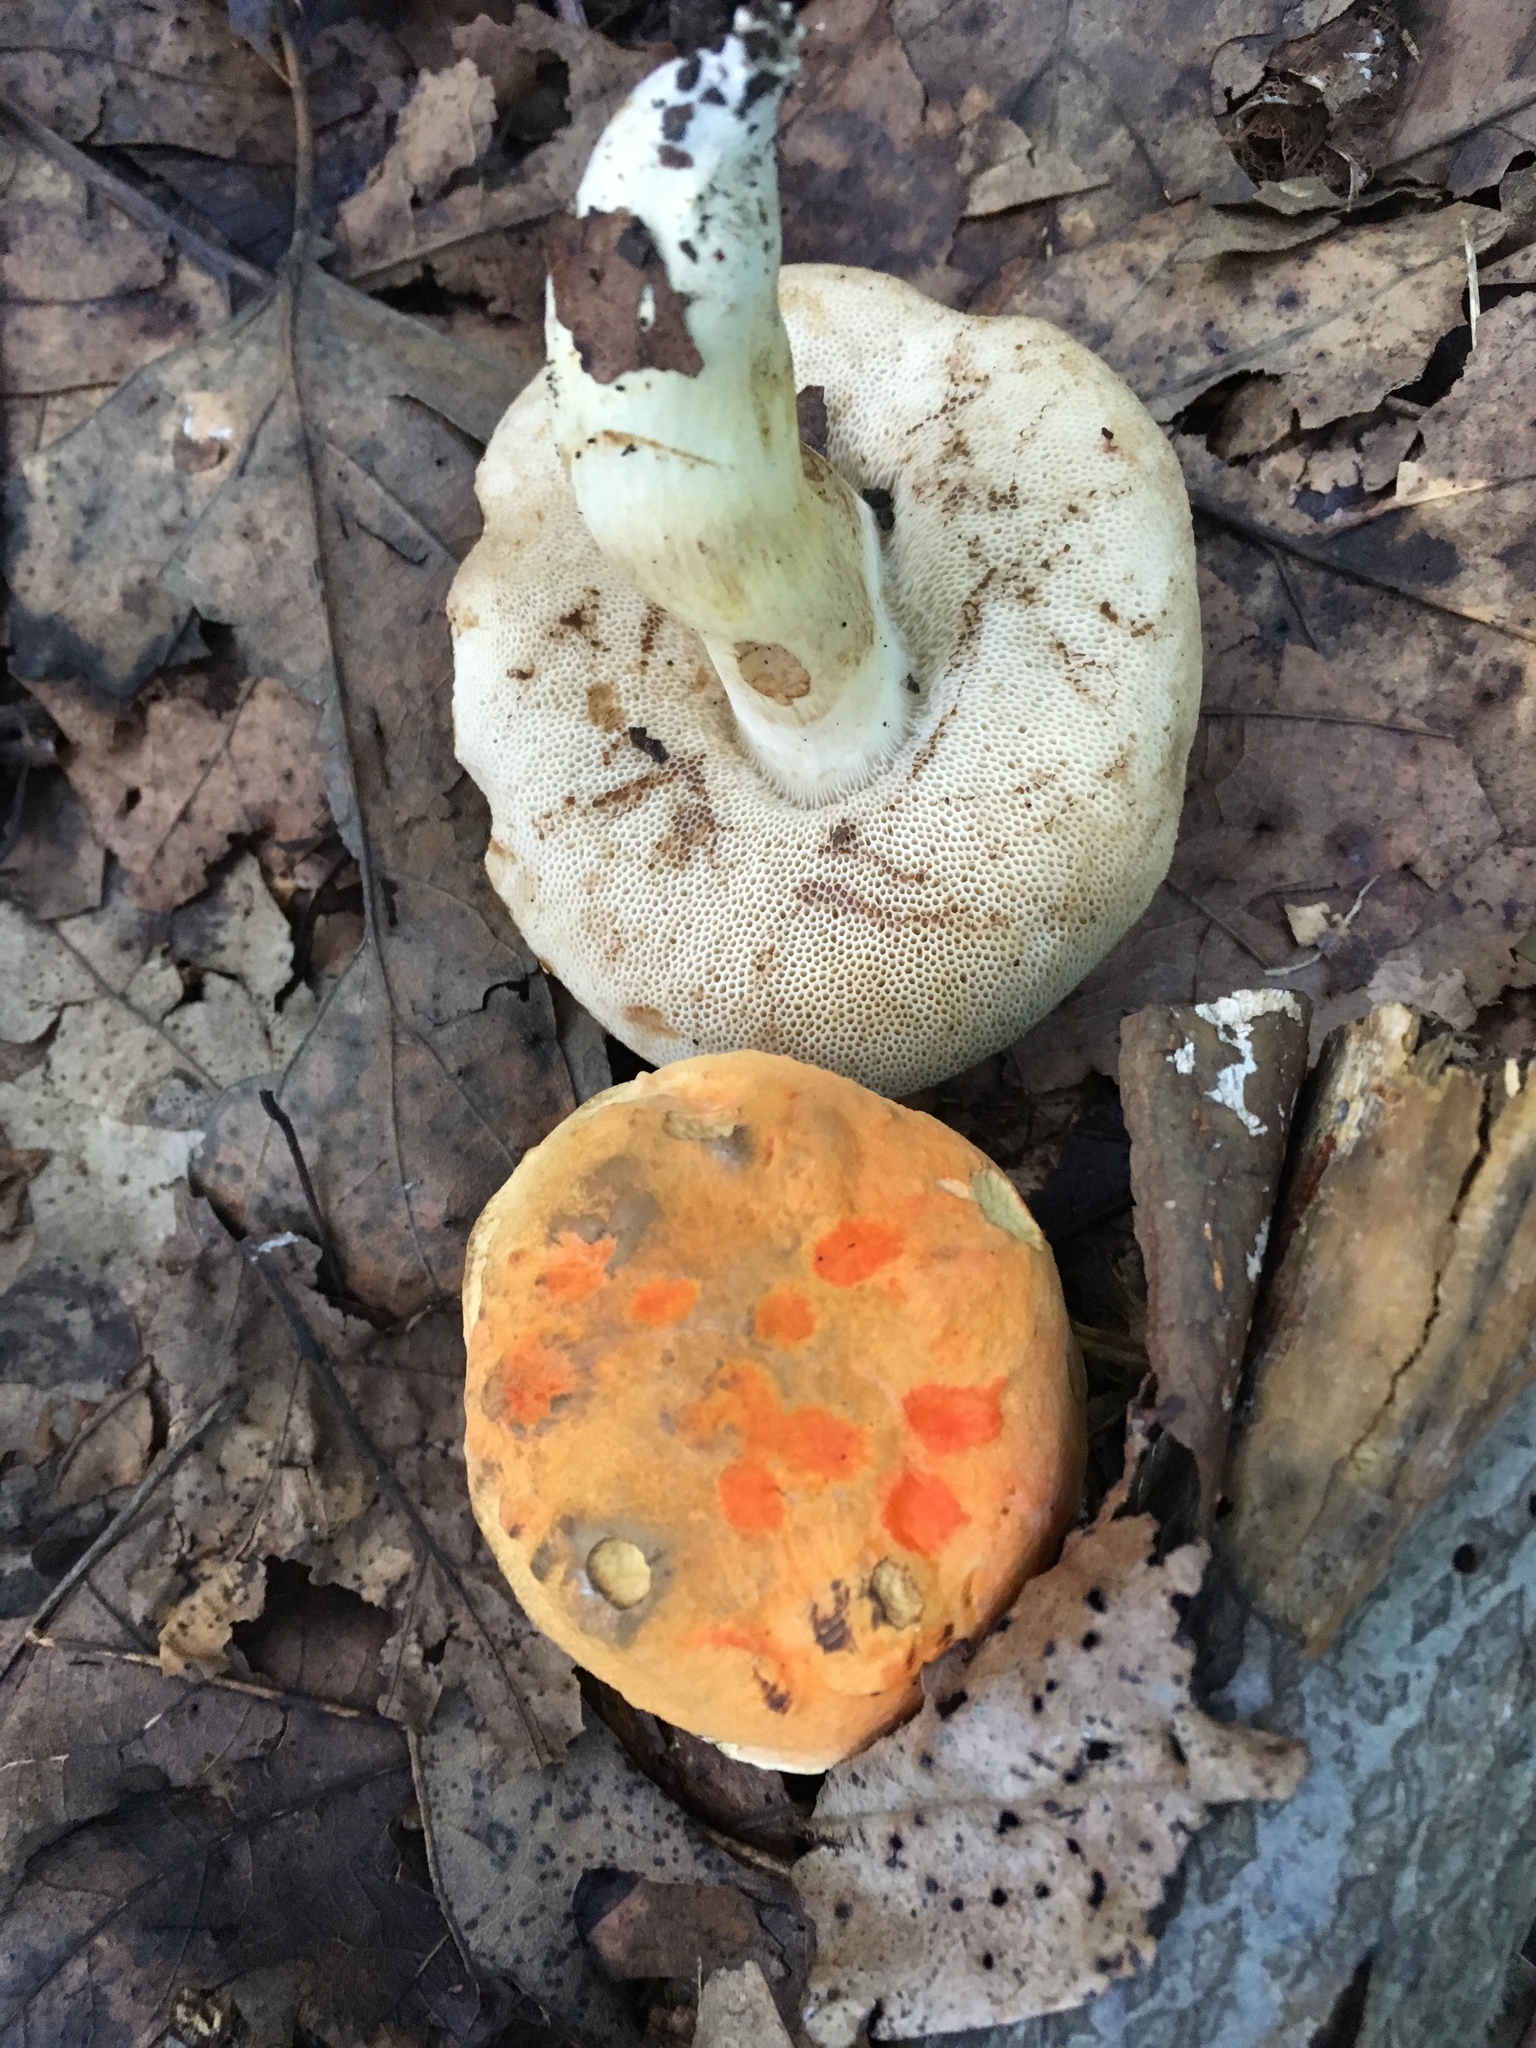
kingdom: Fungi
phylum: Basidiomycota
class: Agaricomycetes
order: Boletales
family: Boletaceae
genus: Tylopilus
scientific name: Tylopilus balloui
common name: Burnt-orange bolete
